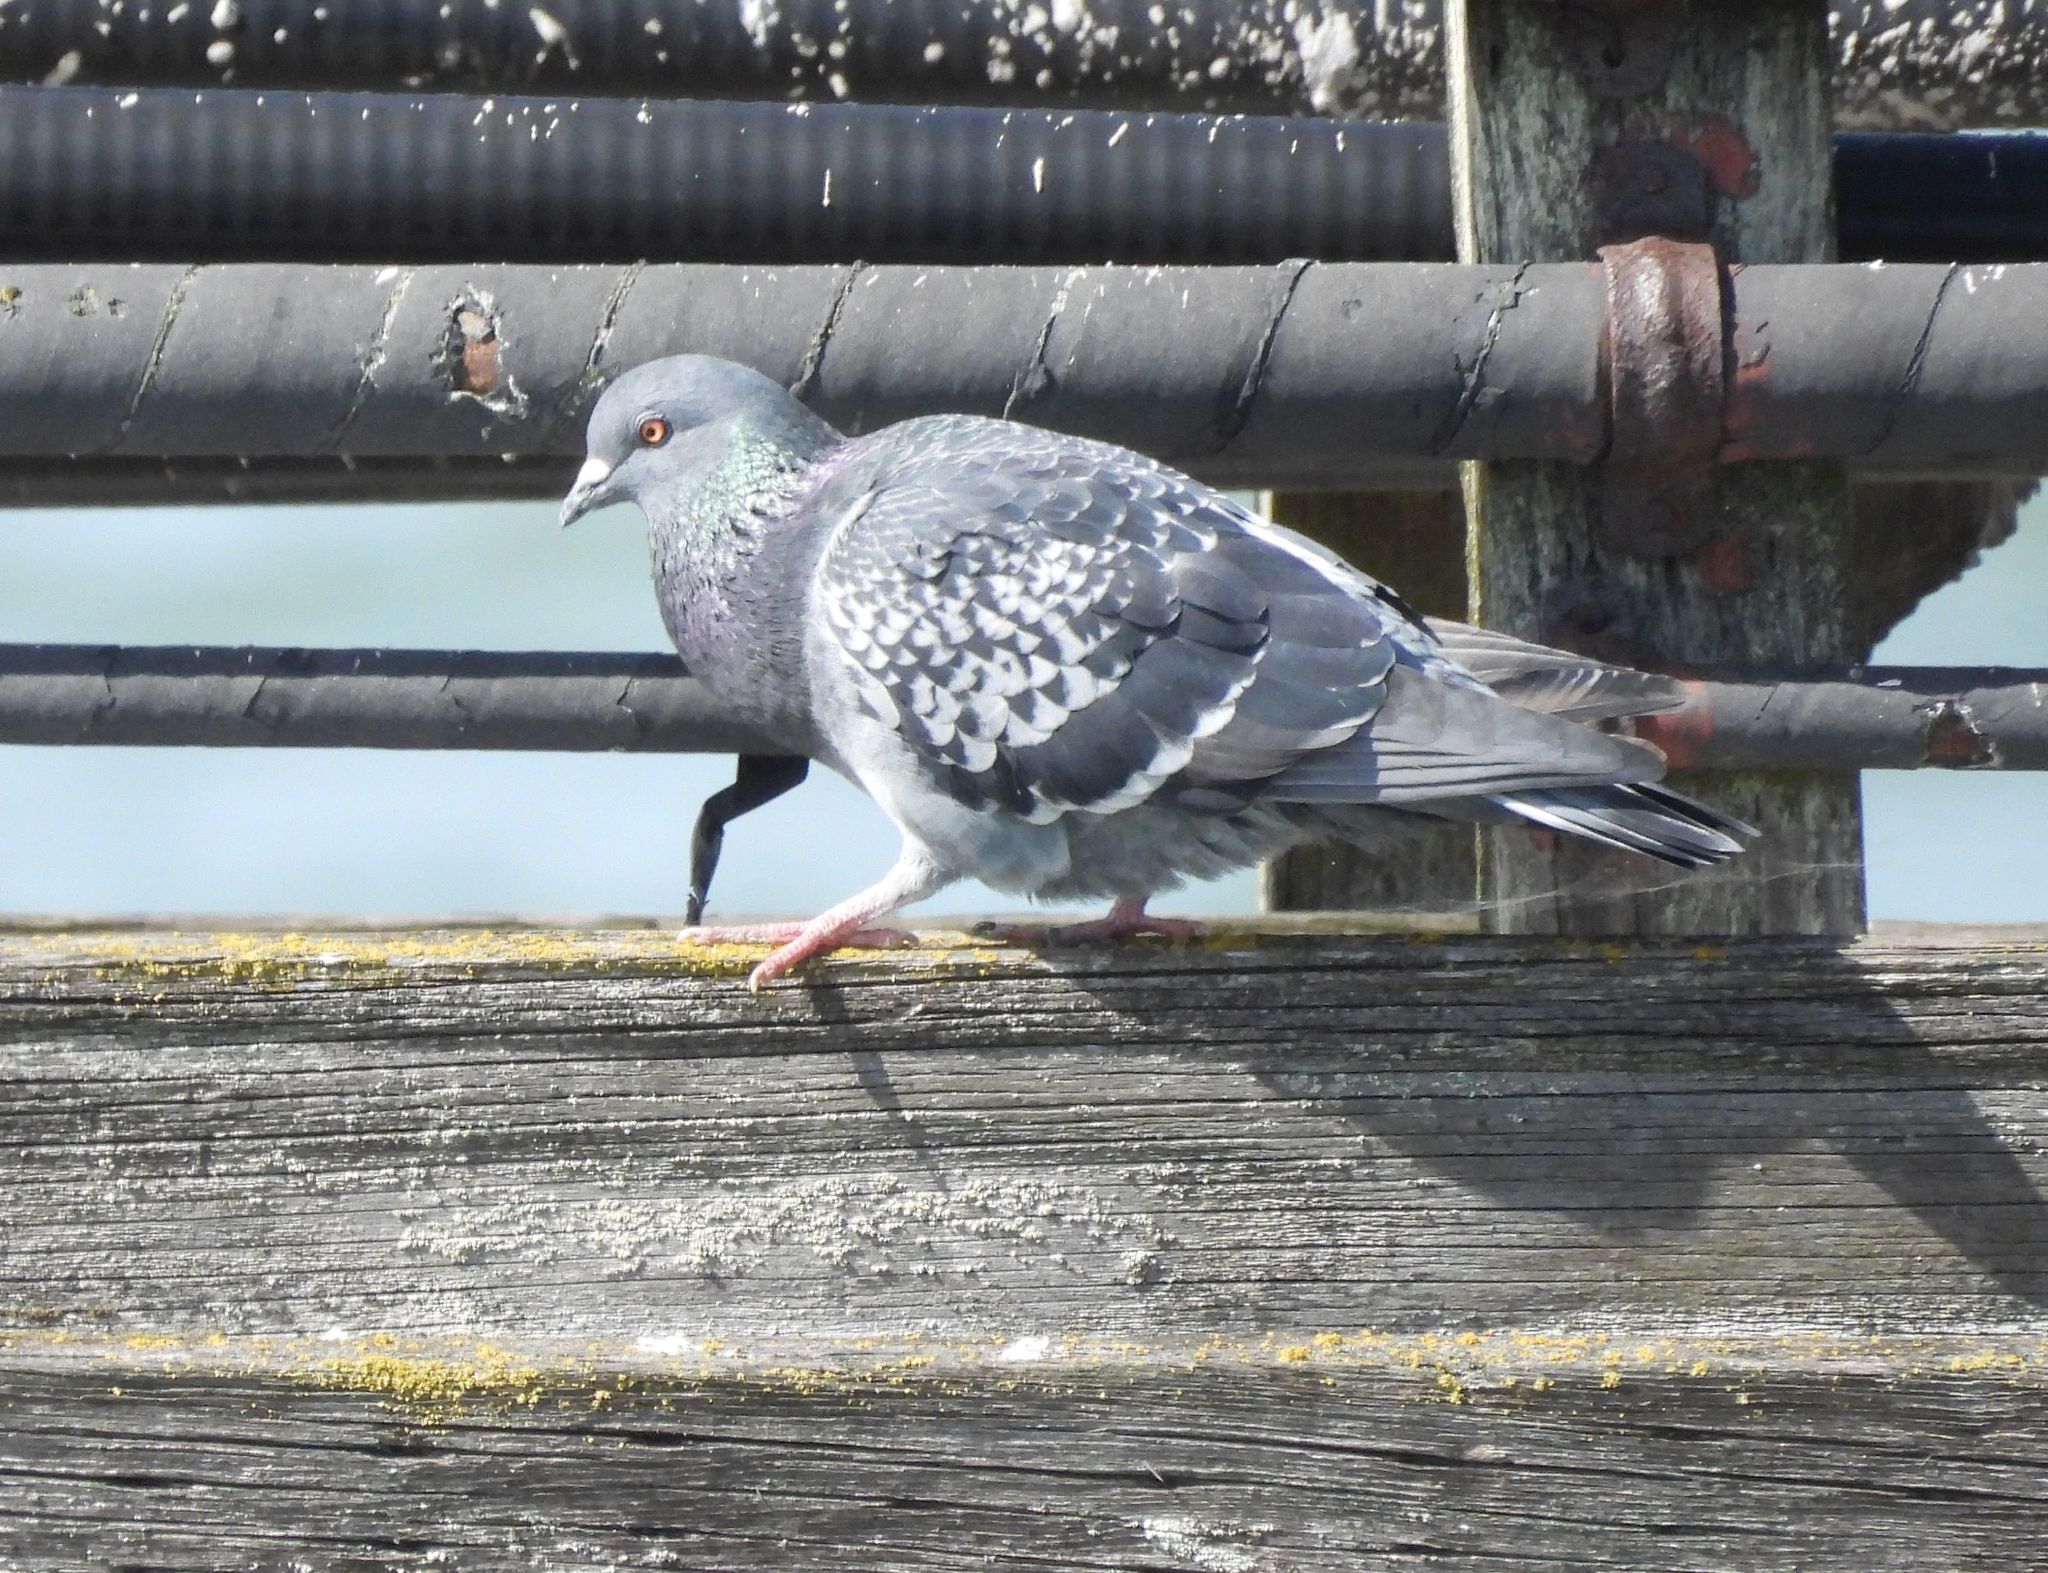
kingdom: Animalia
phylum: Chordata
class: Aves
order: Columbiformes
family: Columbidae
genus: Columba
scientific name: Columba livia
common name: Rock pigeon
